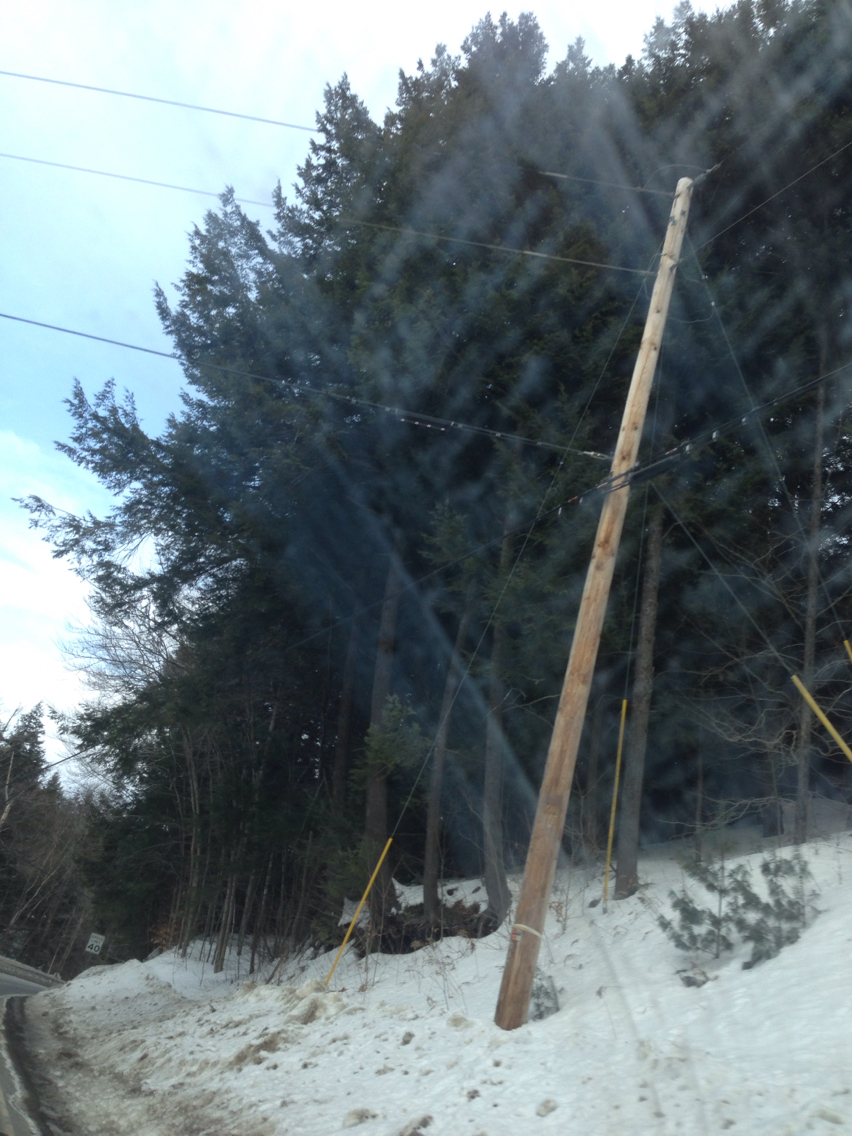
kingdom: Plantae
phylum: Tracheophyta
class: Pinopsida
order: Pinales
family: Pinaceae
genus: Tsuga
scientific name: Tsuga canadensis
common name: Eastern hemlock
